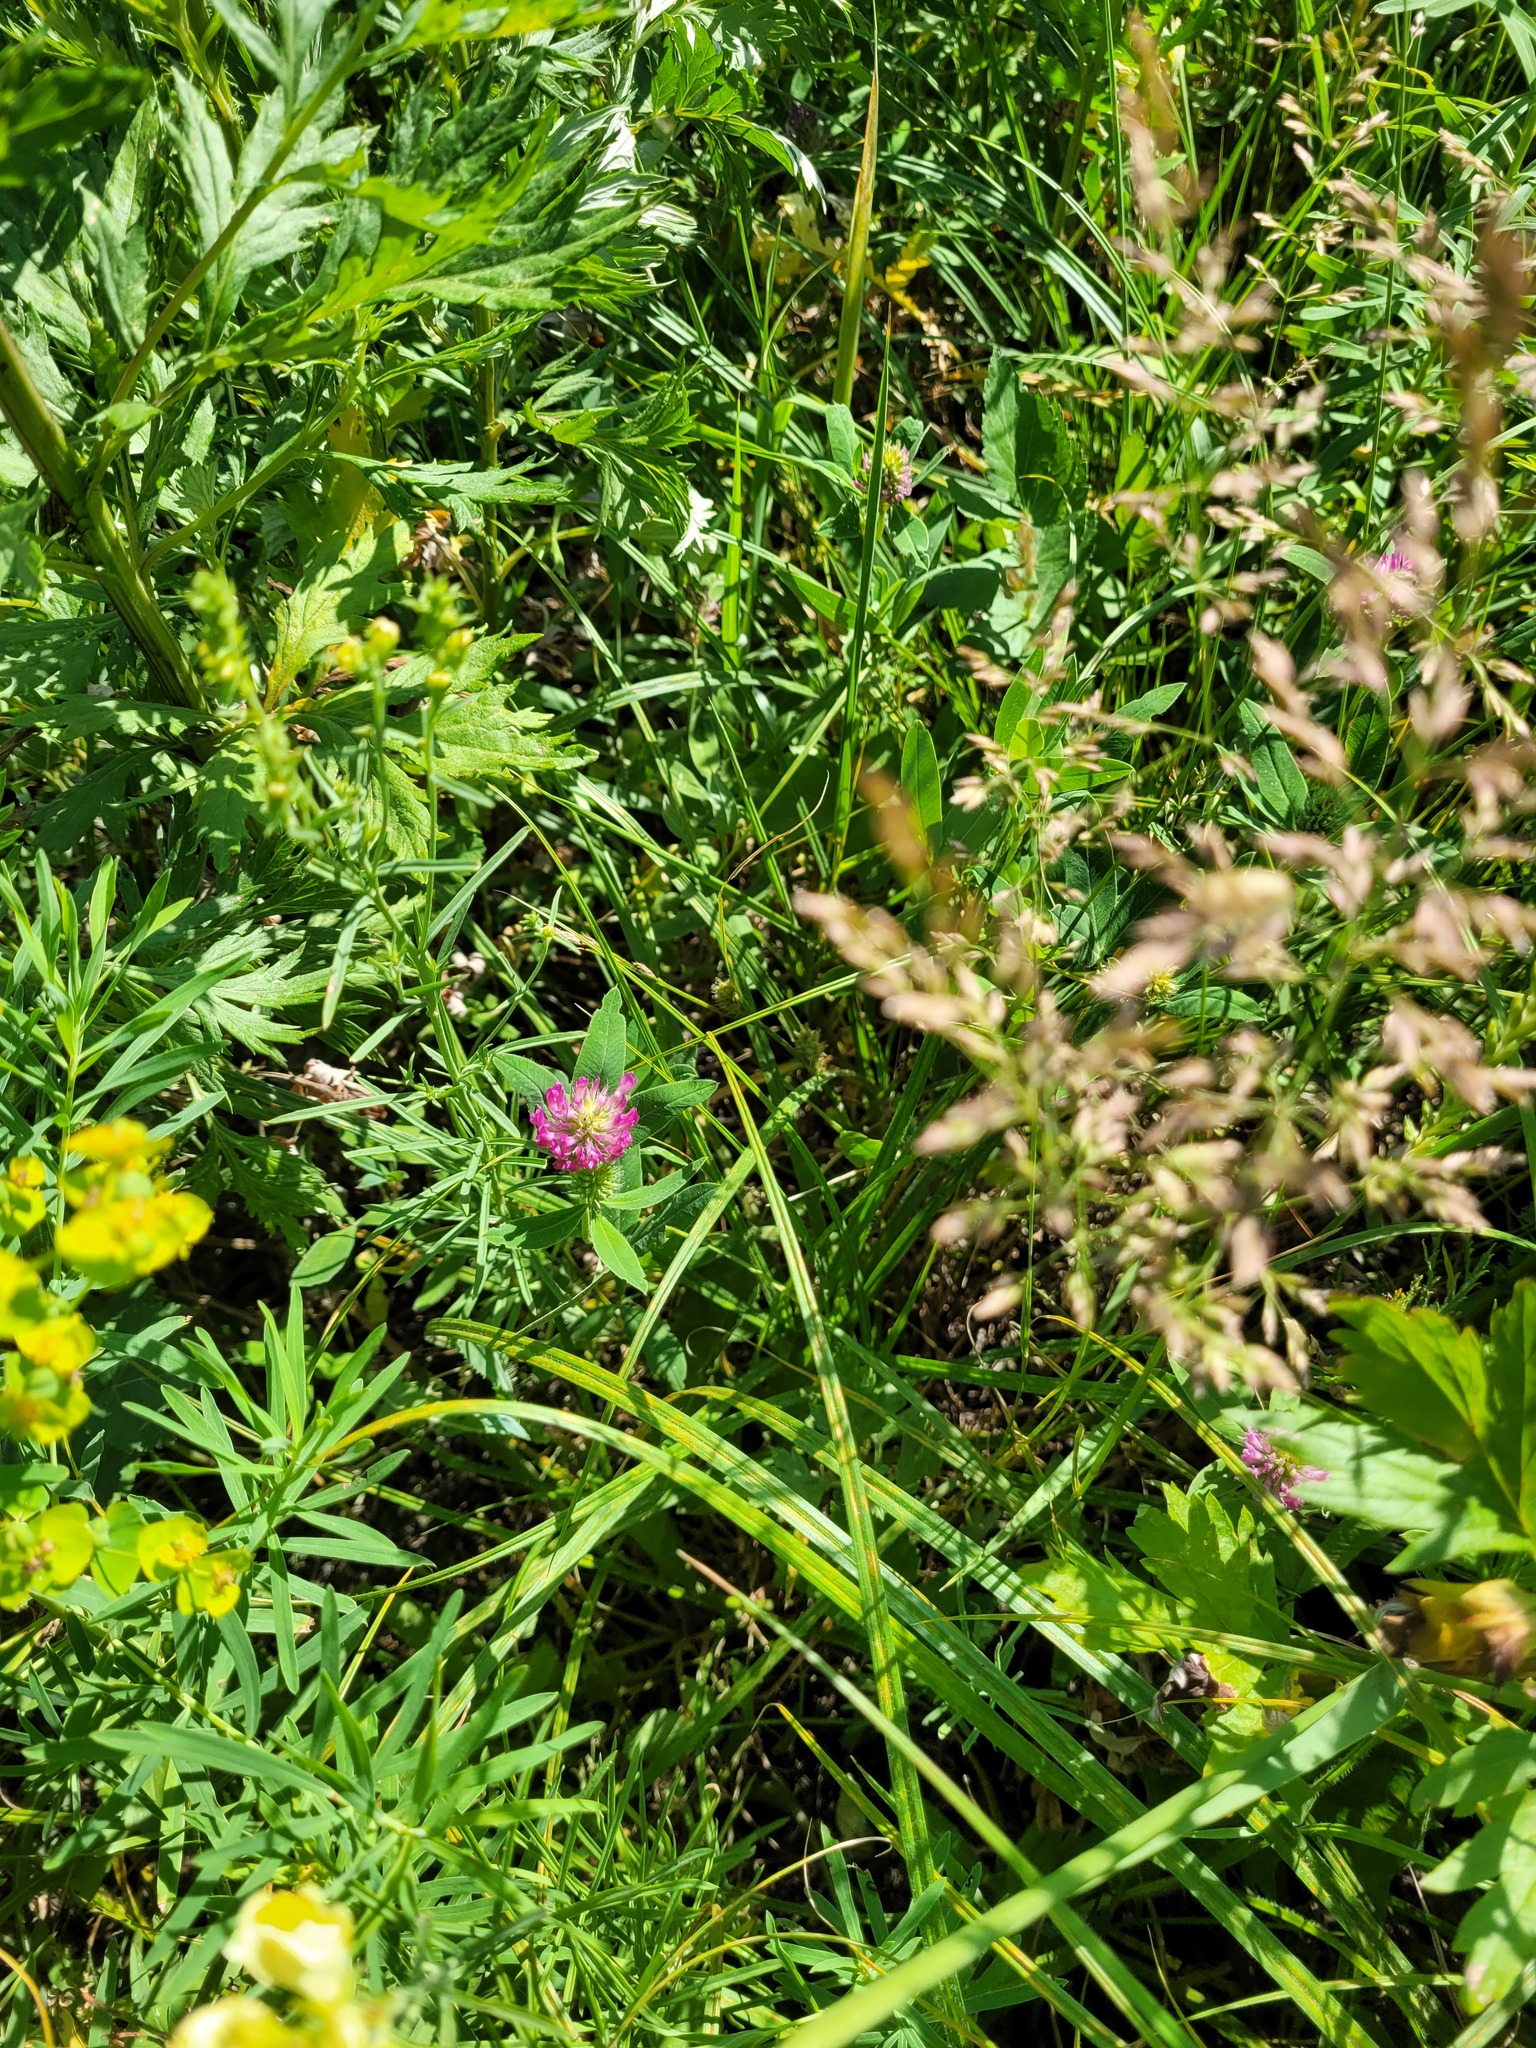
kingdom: Plantae
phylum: Tracheophyta
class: Magnoliopsida
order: Fabales
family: Fabaceae
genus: Trifolium
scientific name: Trifolium medium
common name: Zigzag clover
